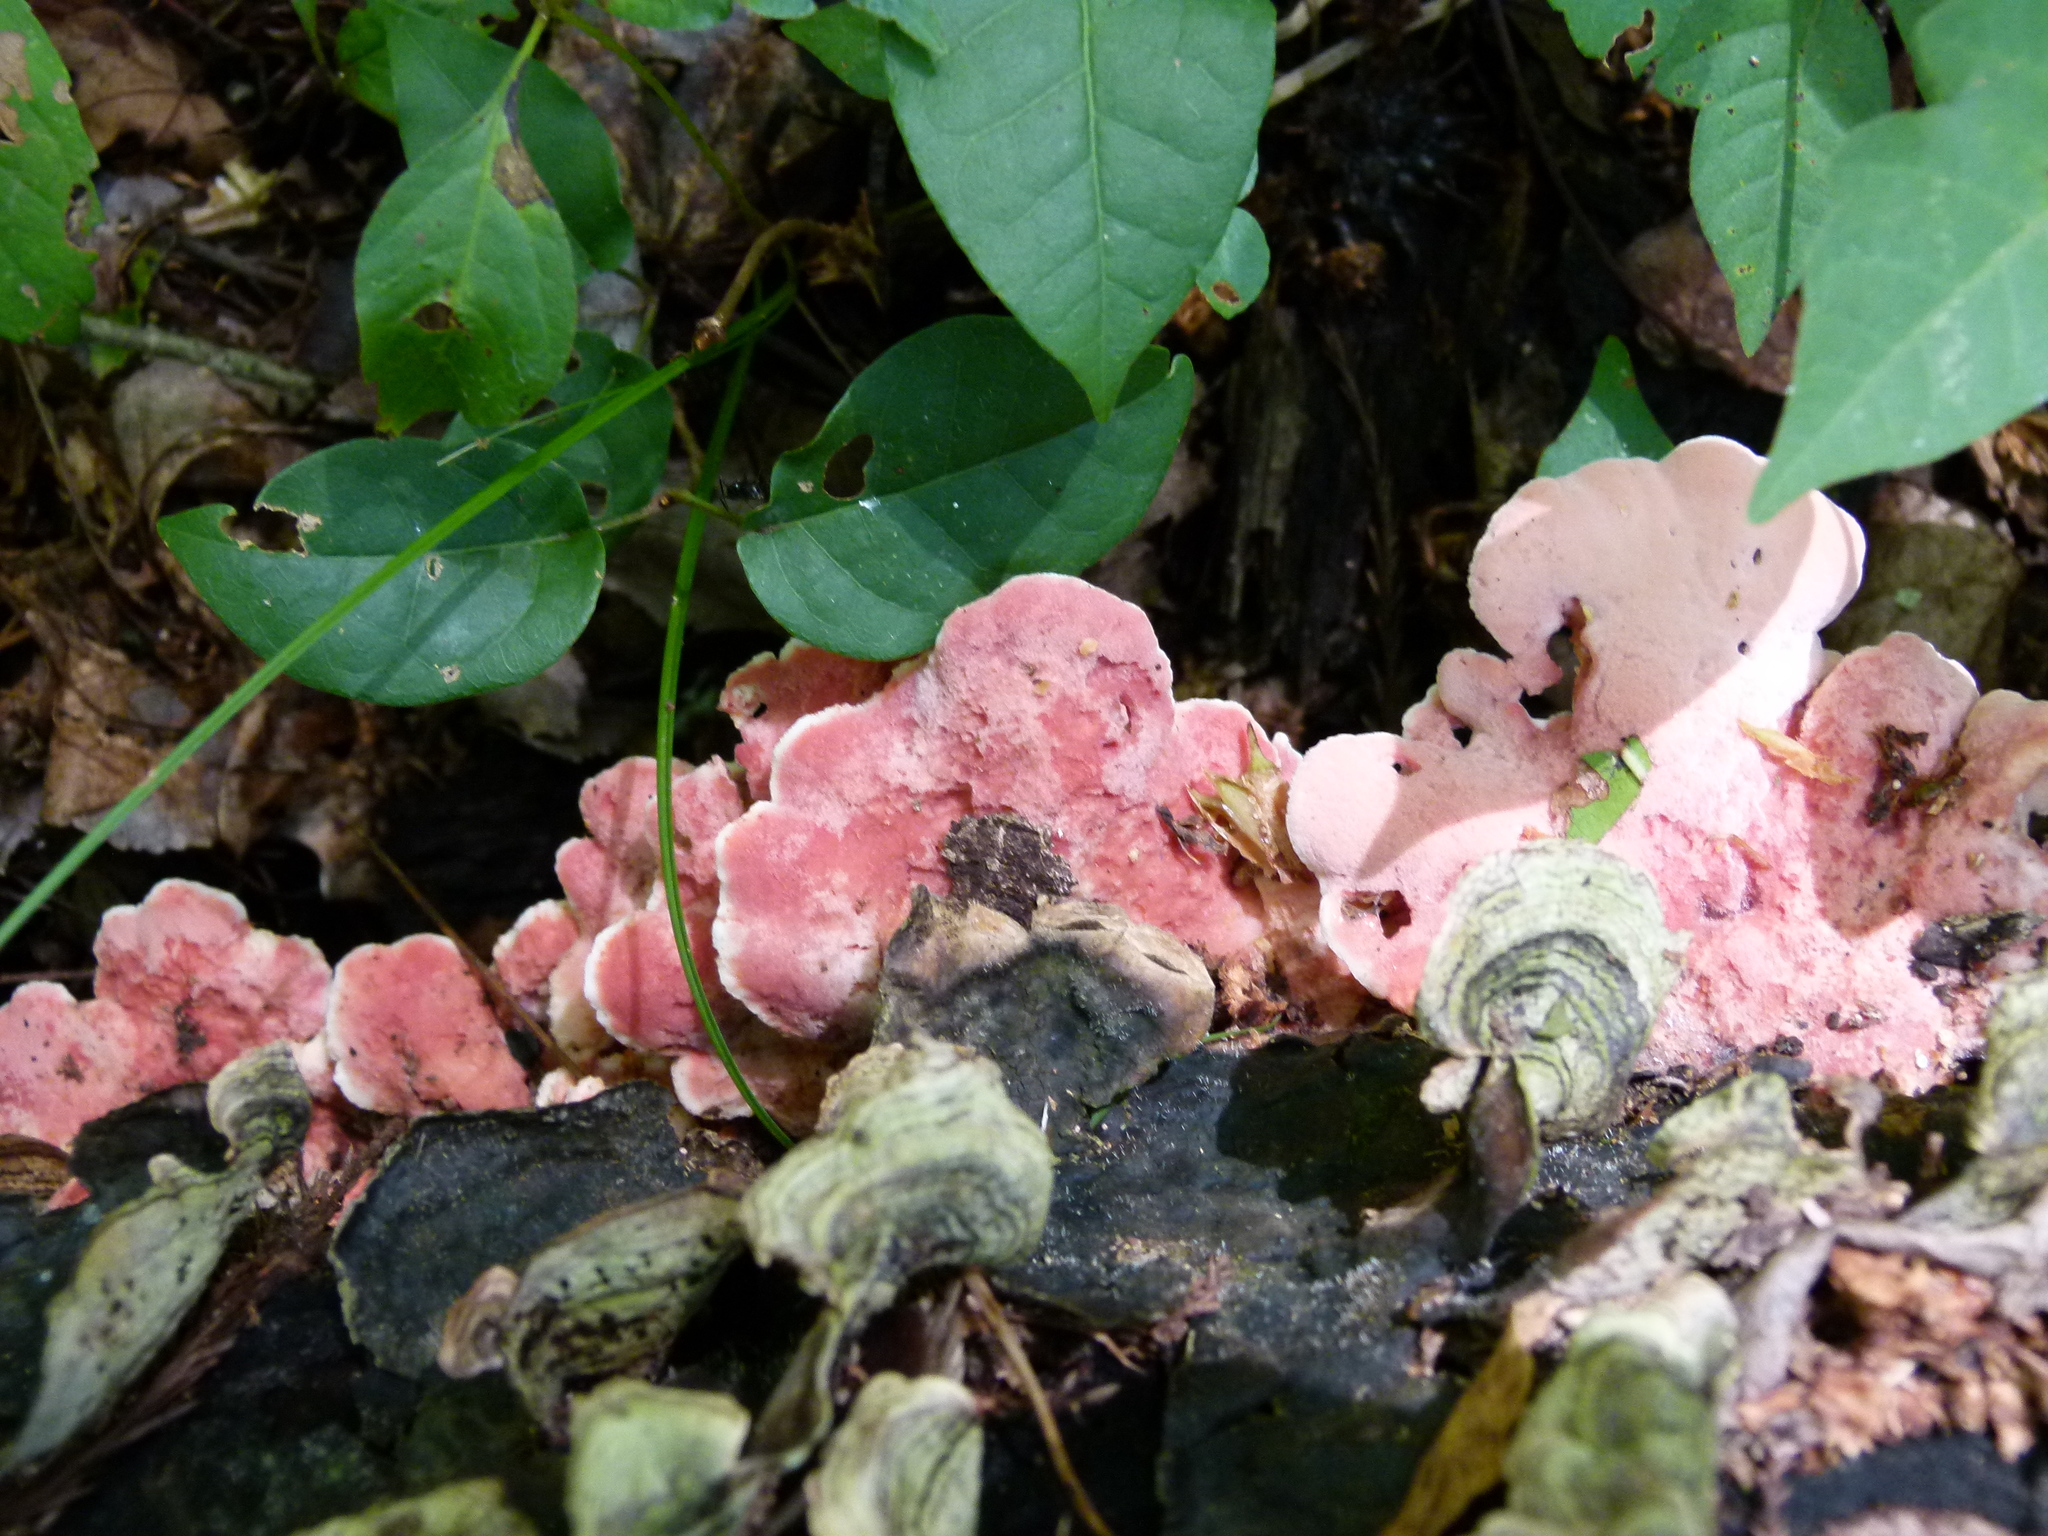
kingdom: Fungi
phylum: Basidiomycota
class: Agaricomycetes
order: Polyporales
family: Irpicaceae
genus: Byssomerulius
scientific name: Byssomerulius incarnatus
